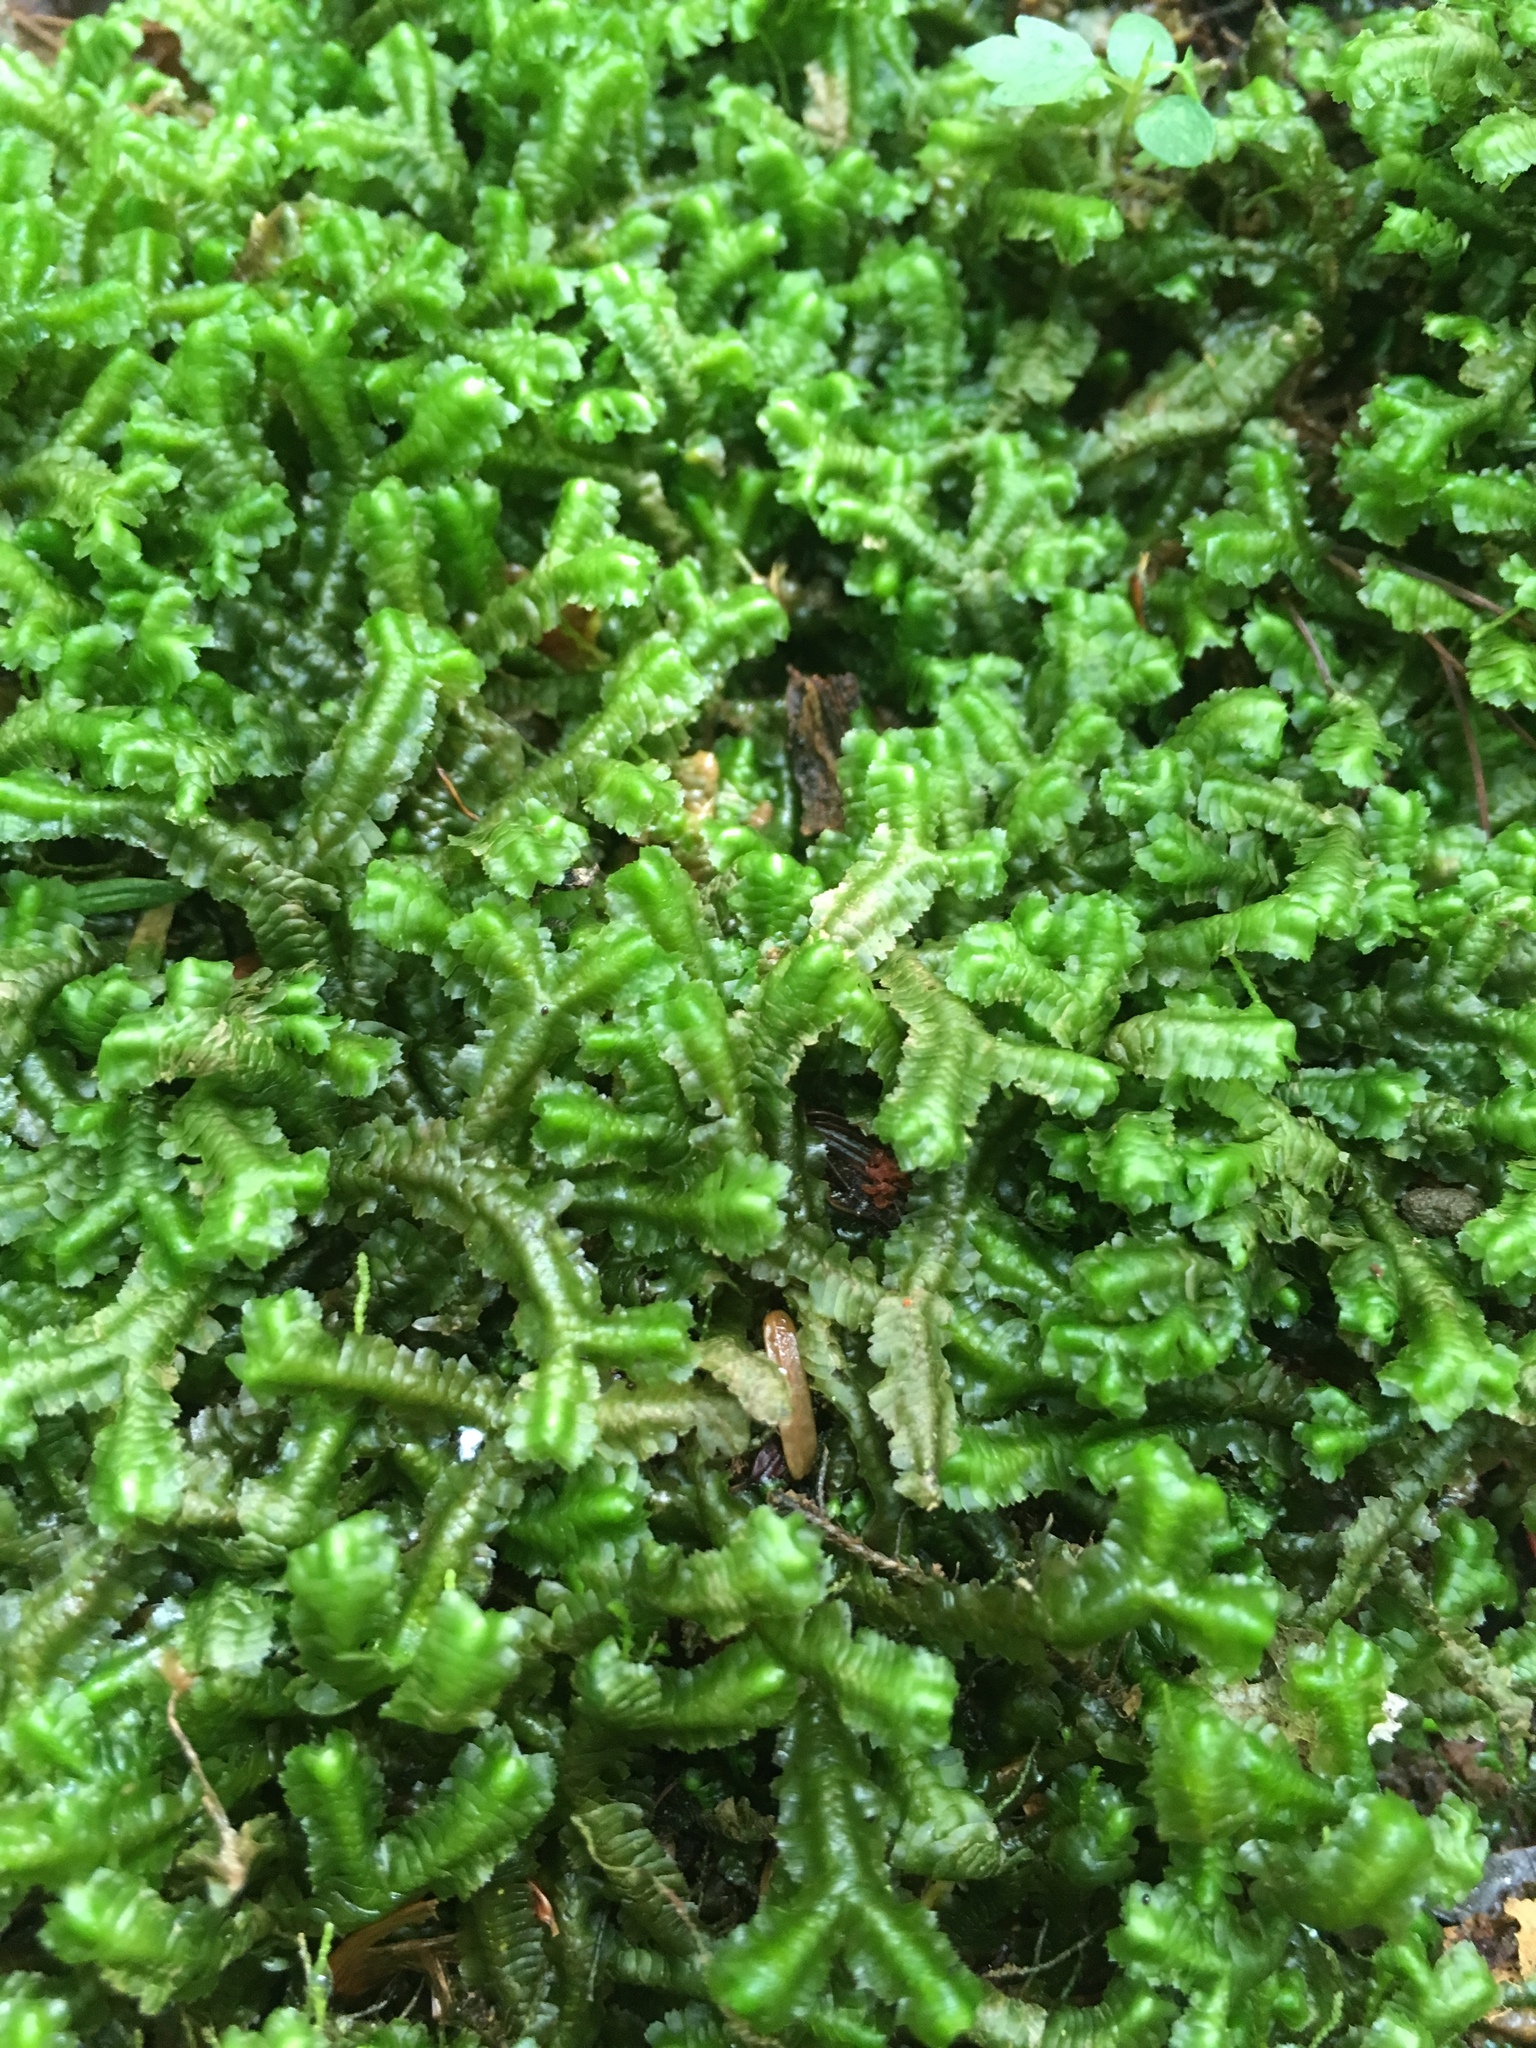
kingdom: Plantae
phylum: Marchantiophyta
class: Jungermanniopsida
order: Jungermanniales
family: Lepidoziaceae
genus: Bazzania
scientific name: Bazzania trilobata
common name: Three-lobed whipwort
